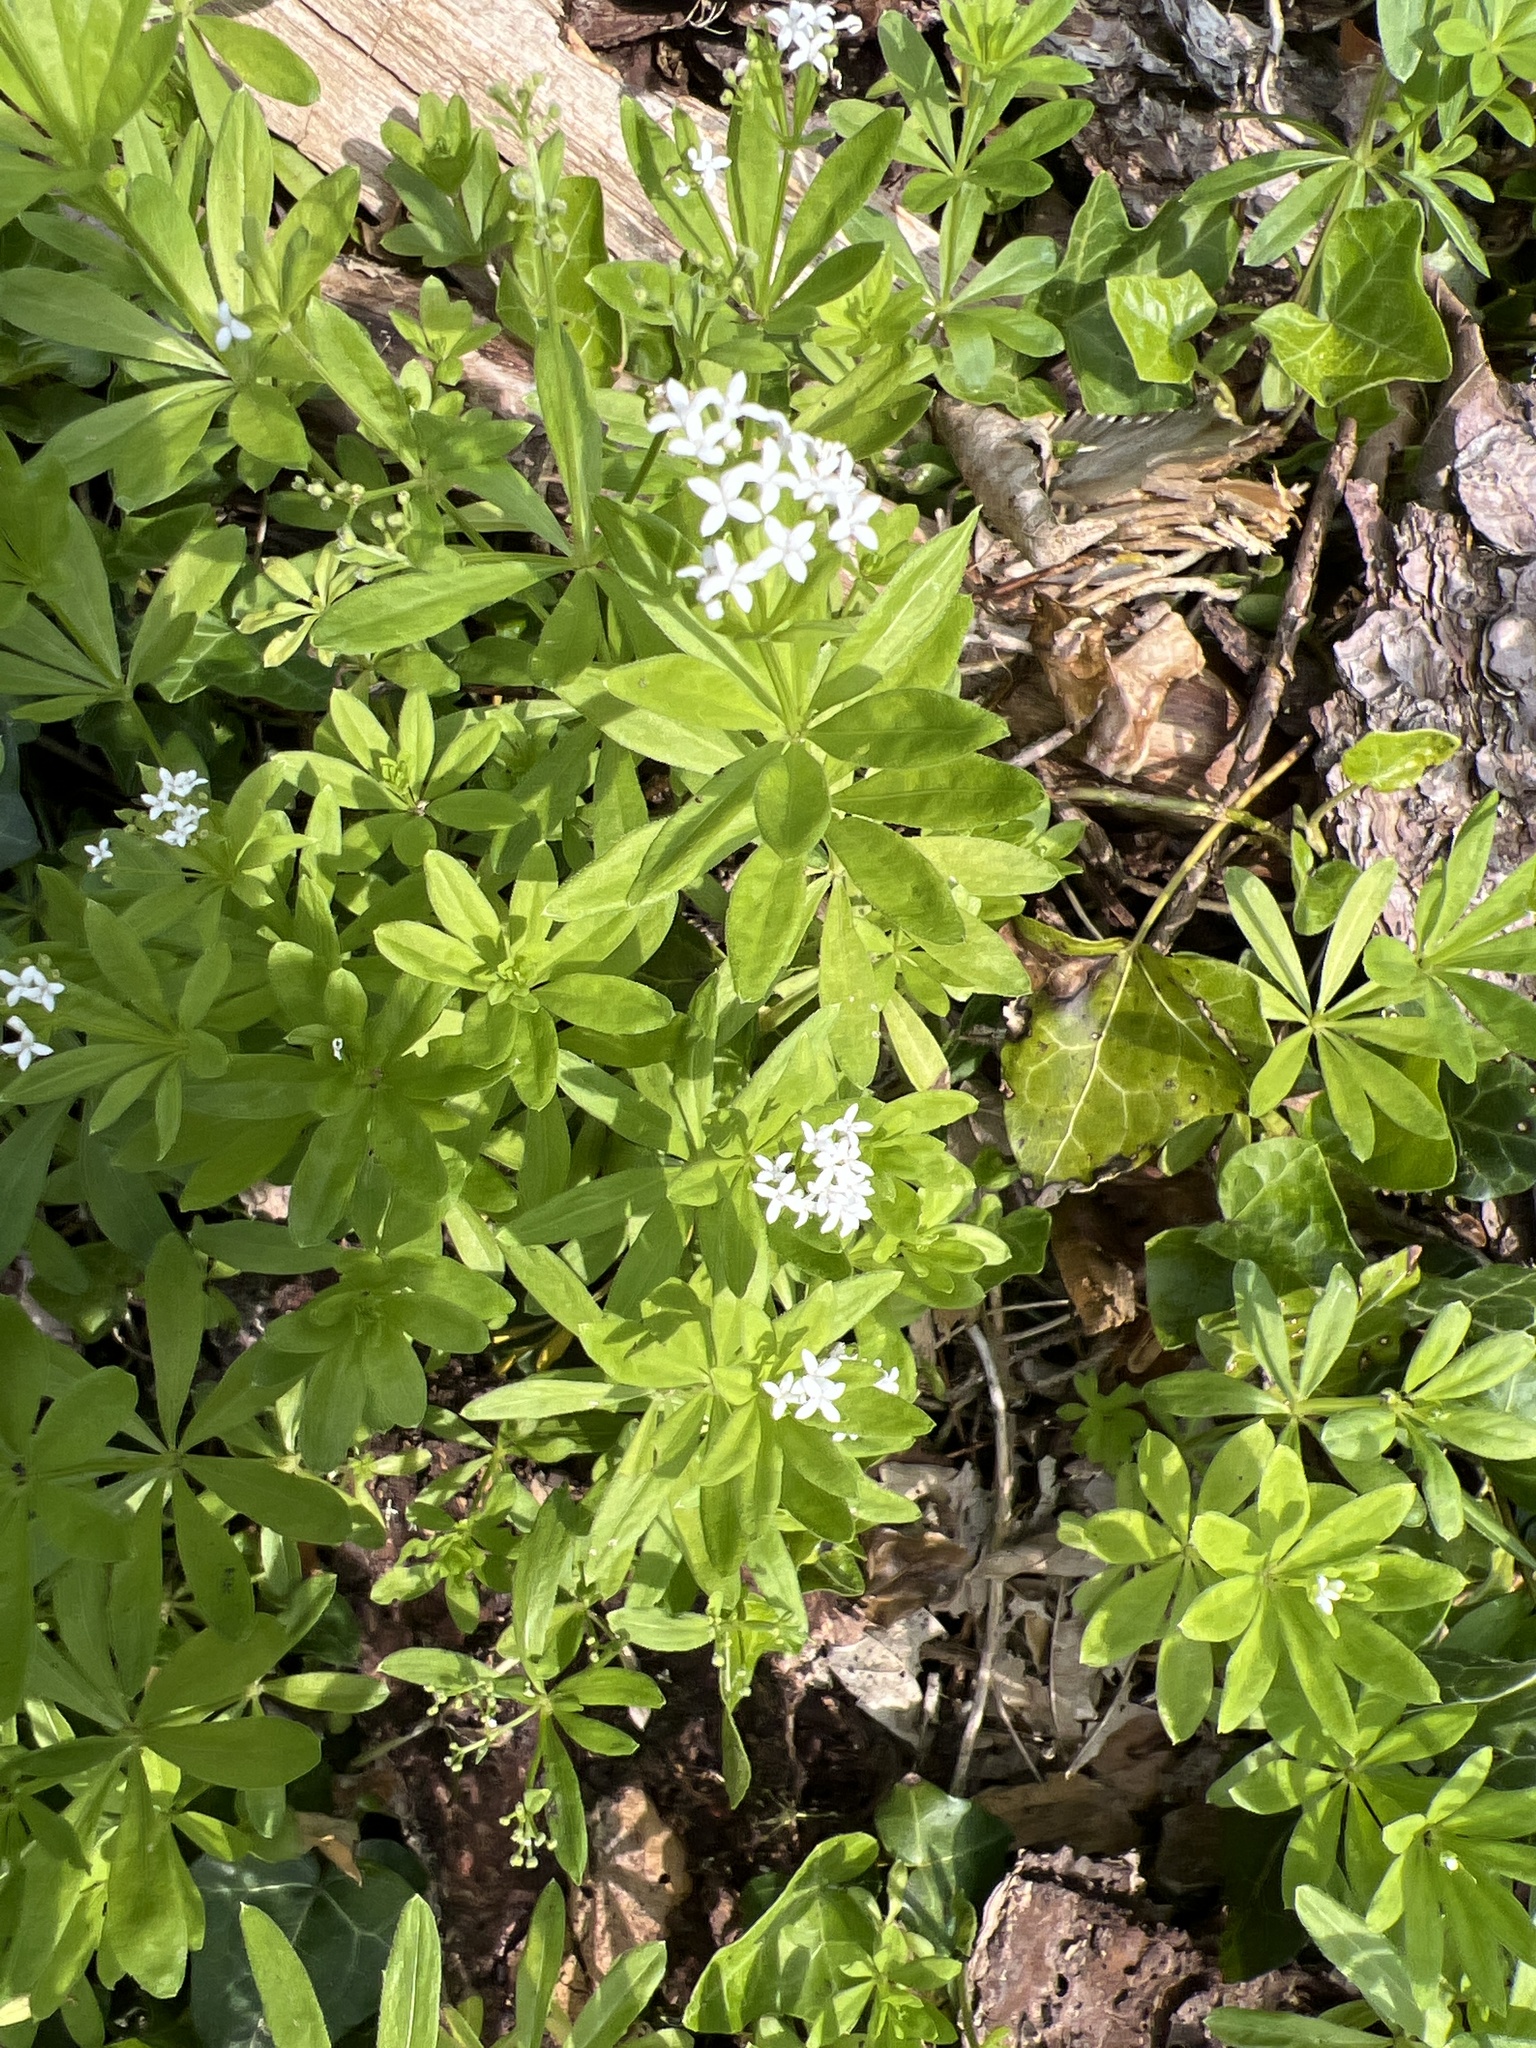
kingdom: Plantae
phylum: Tracheophyta
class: Magnoliopsida
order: Gentianales
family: Rubiaceae
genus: Galium
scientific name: Galium odoratum
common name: Sweet woodruff
